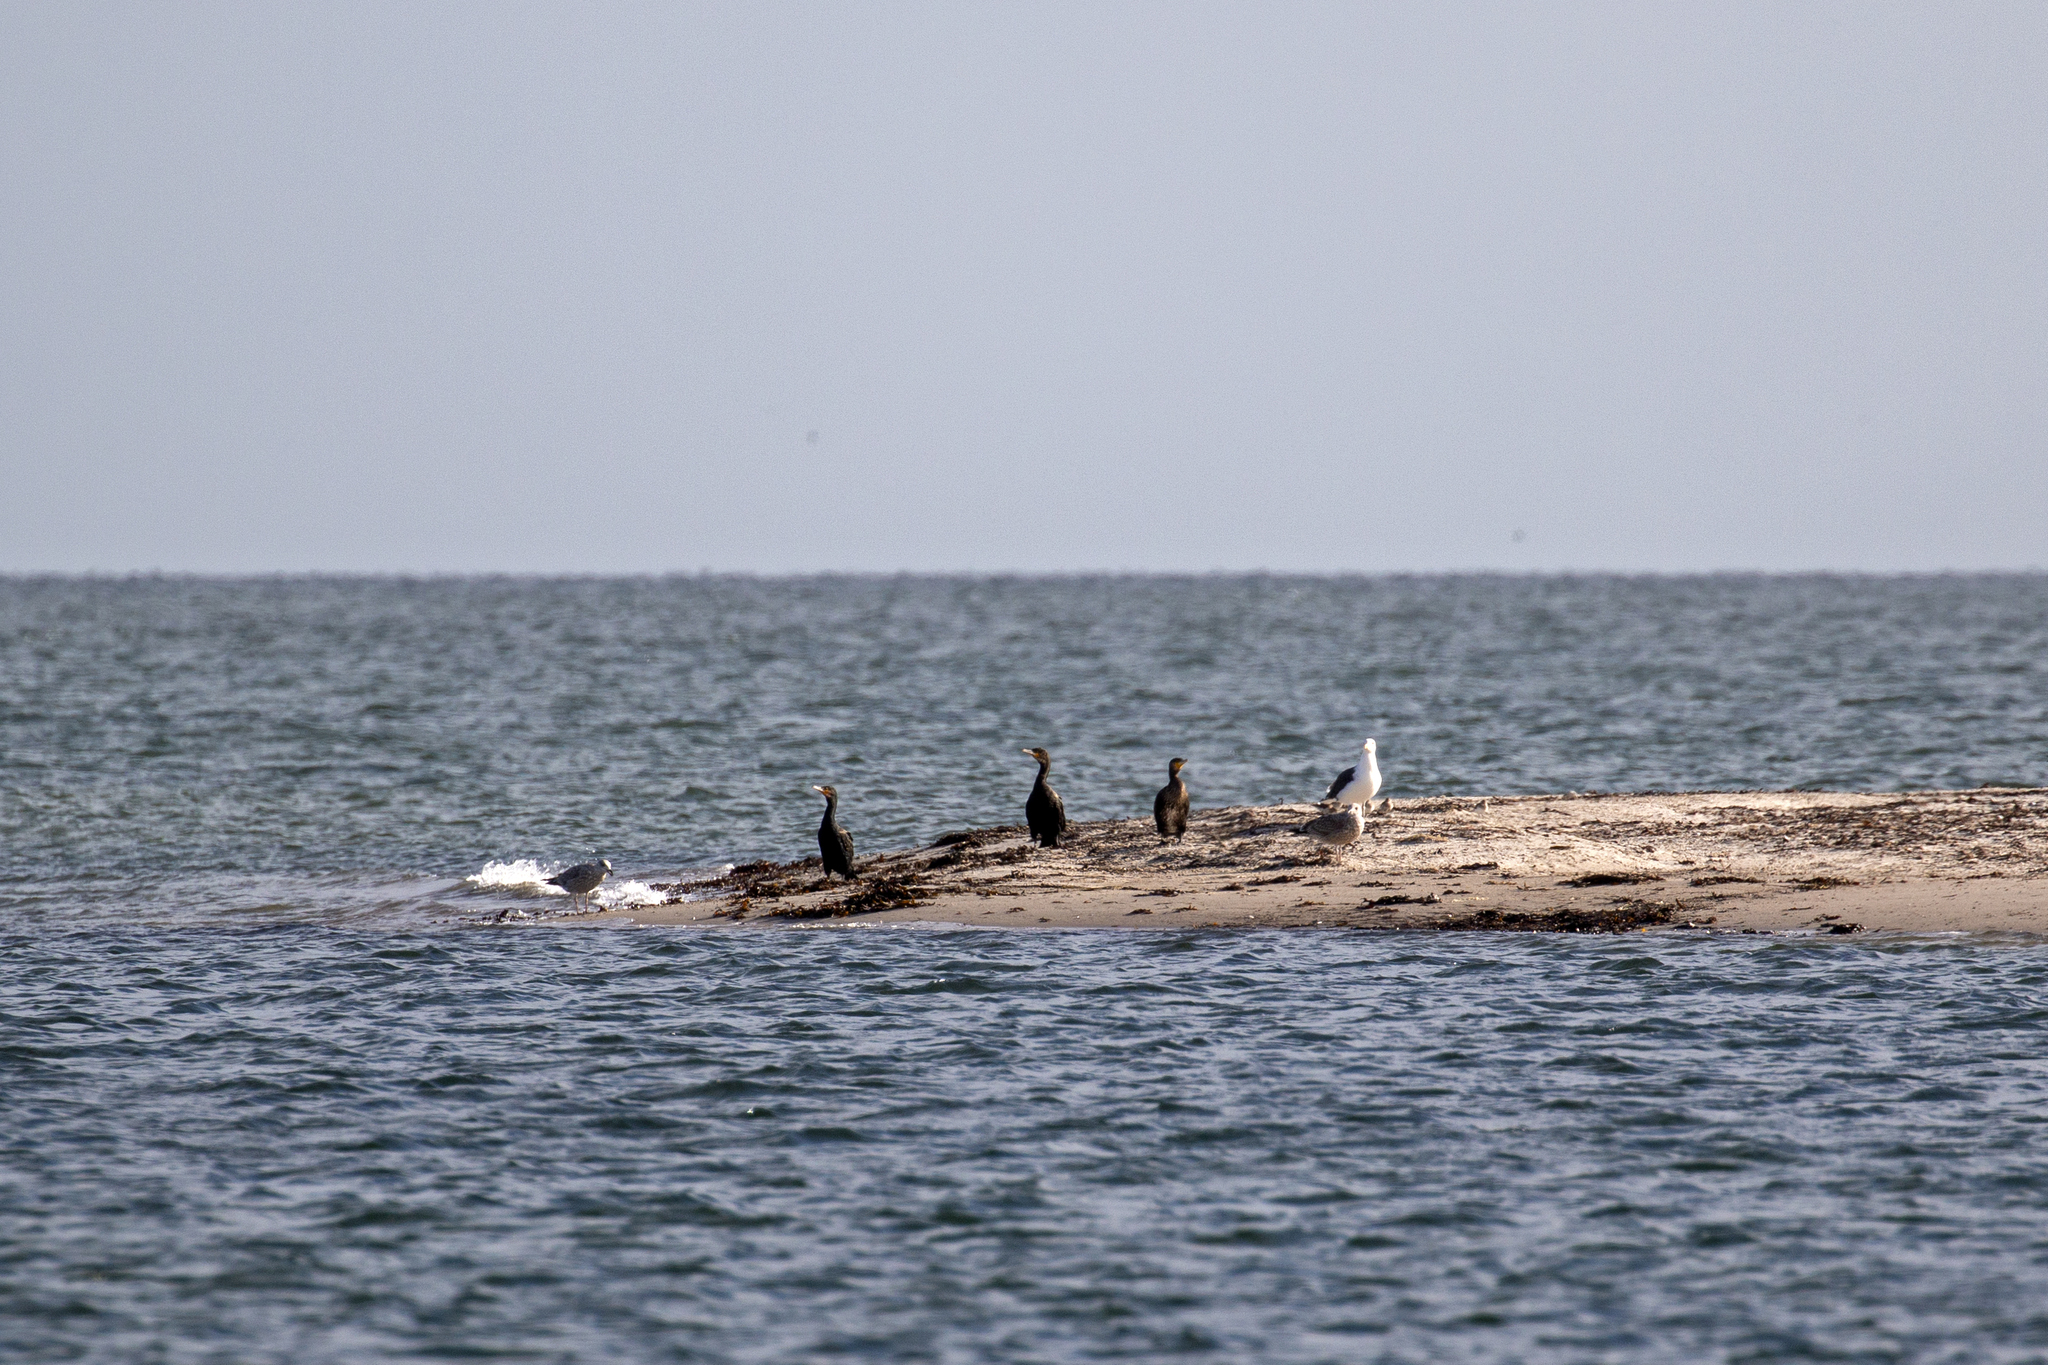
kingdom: Animalia
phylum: Chordata
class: Aves
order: Suliformes
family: Phalacrocoracidae
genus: Phalacrocorax
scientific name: Phalacrocorax carbo
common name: Great cormorant
